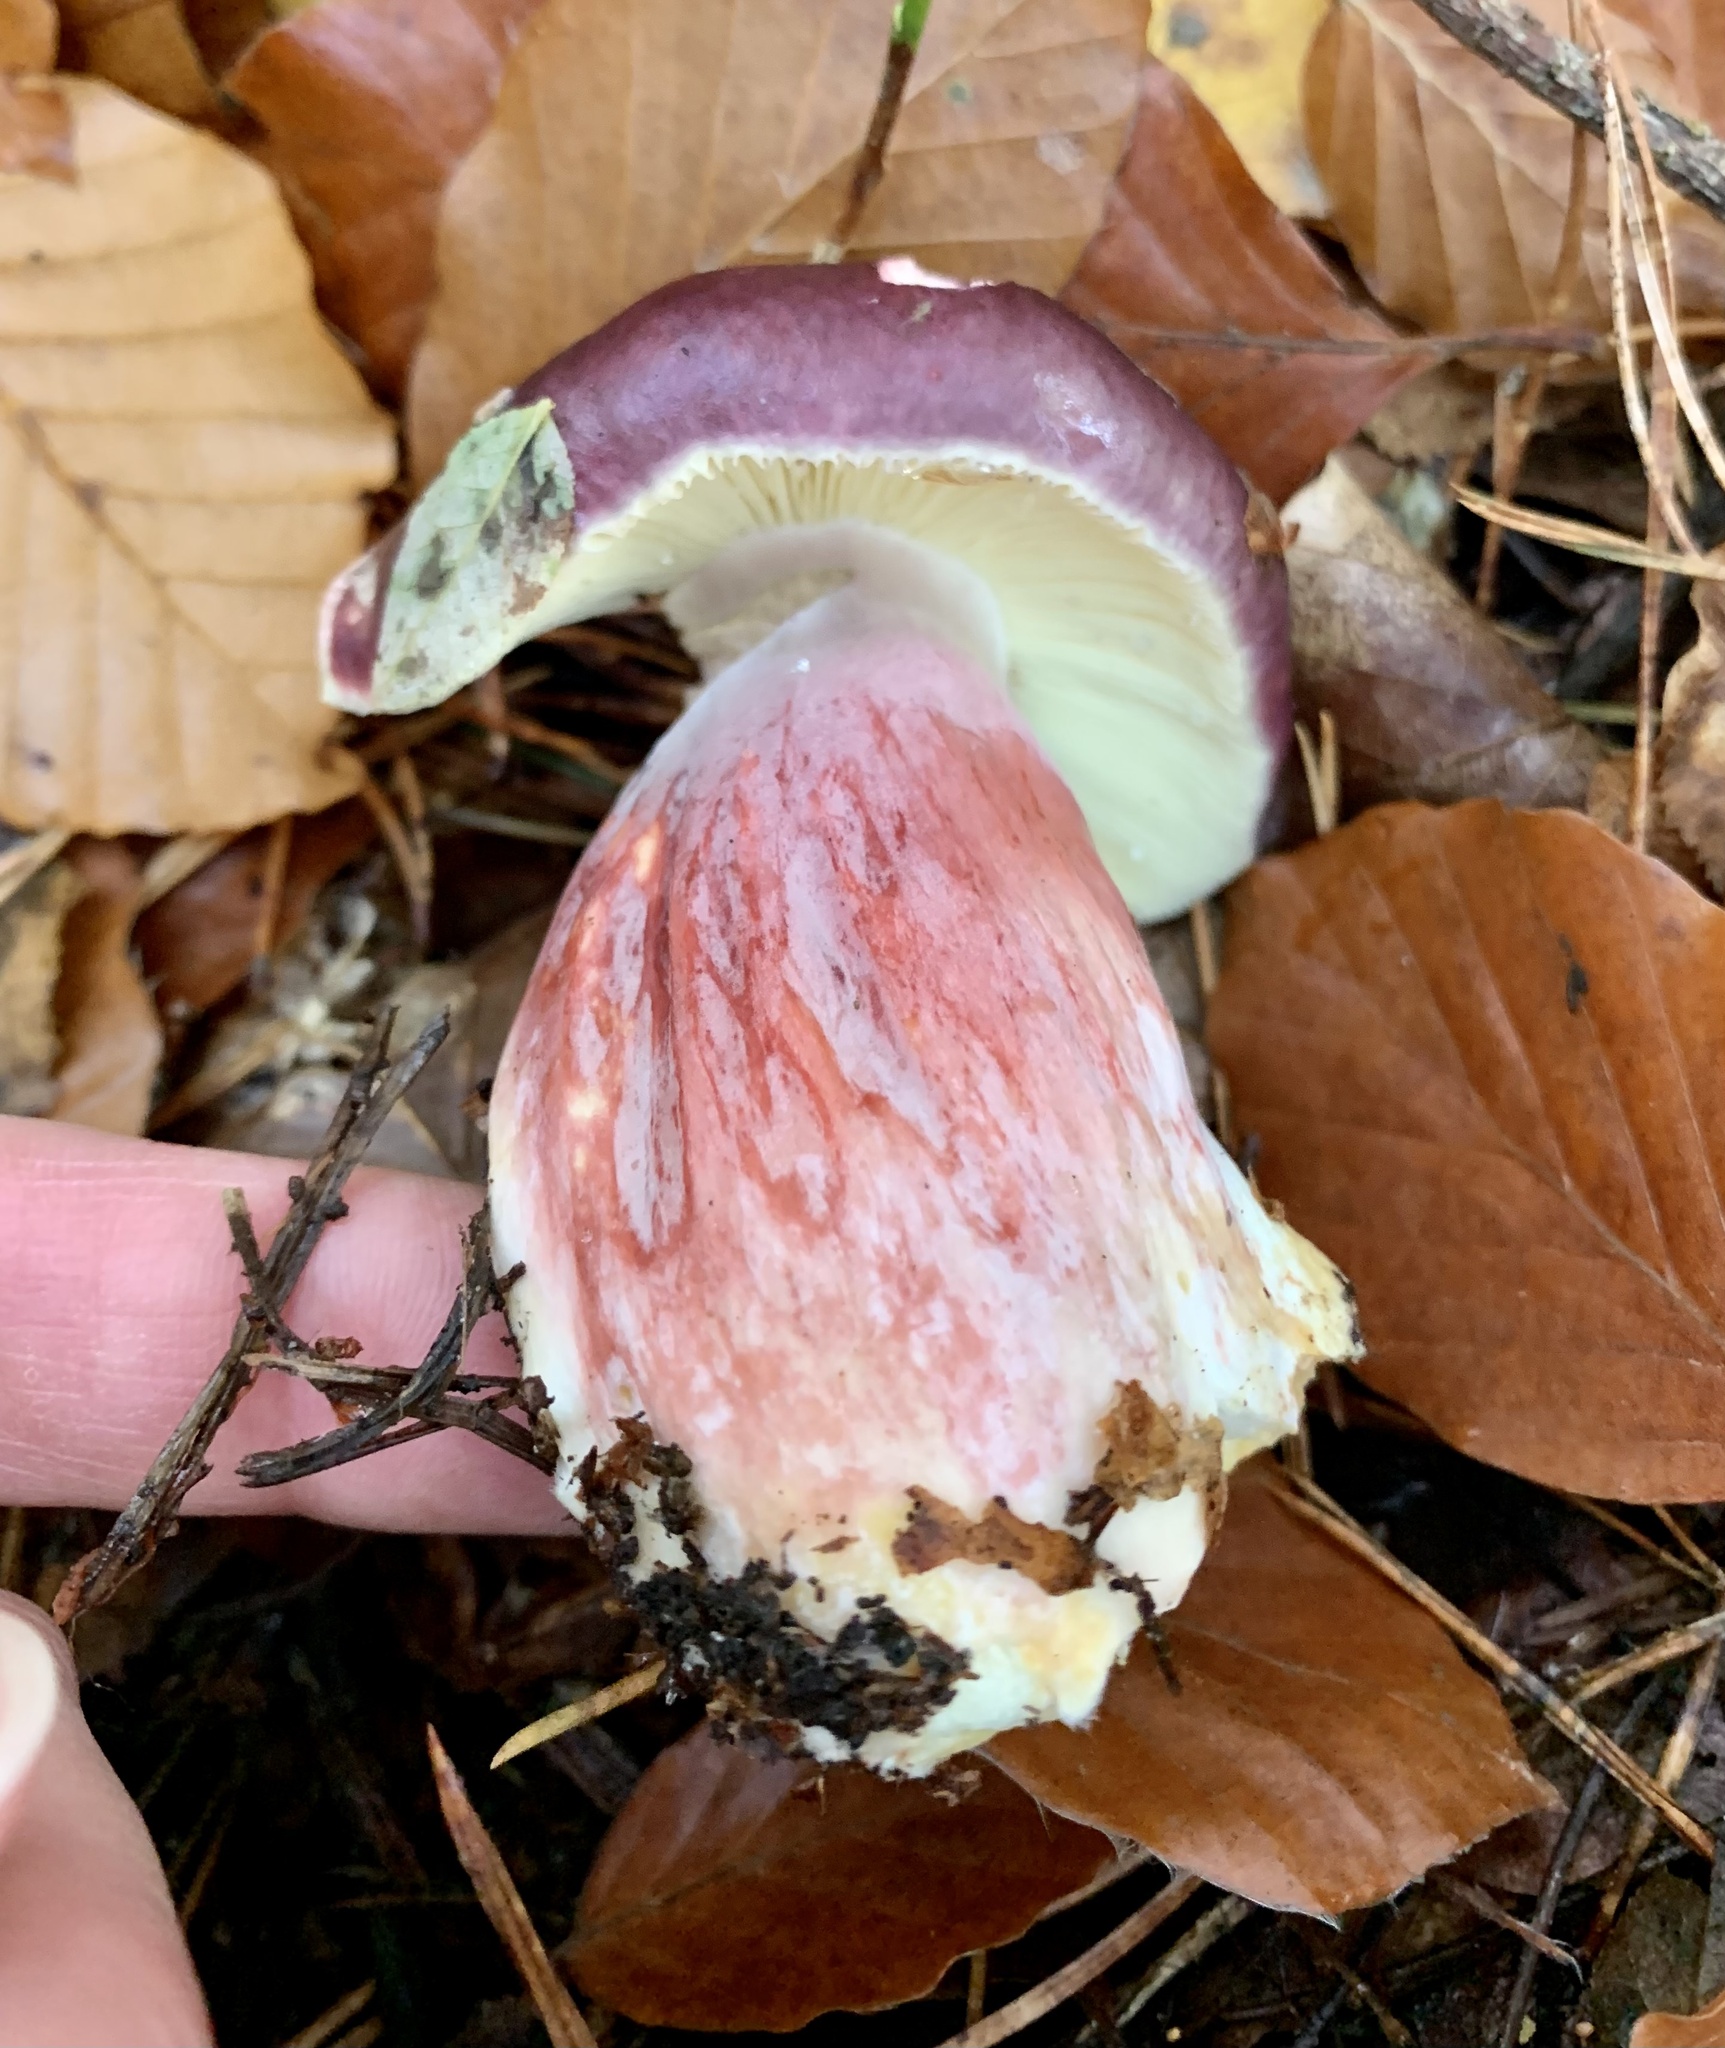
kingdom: Fungi
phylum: Basidiomycota
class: Agaricomycetes
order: Russulales
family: Russulaceae
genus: Russula
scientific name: Russula sardonia
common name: Primrose brittlegill
